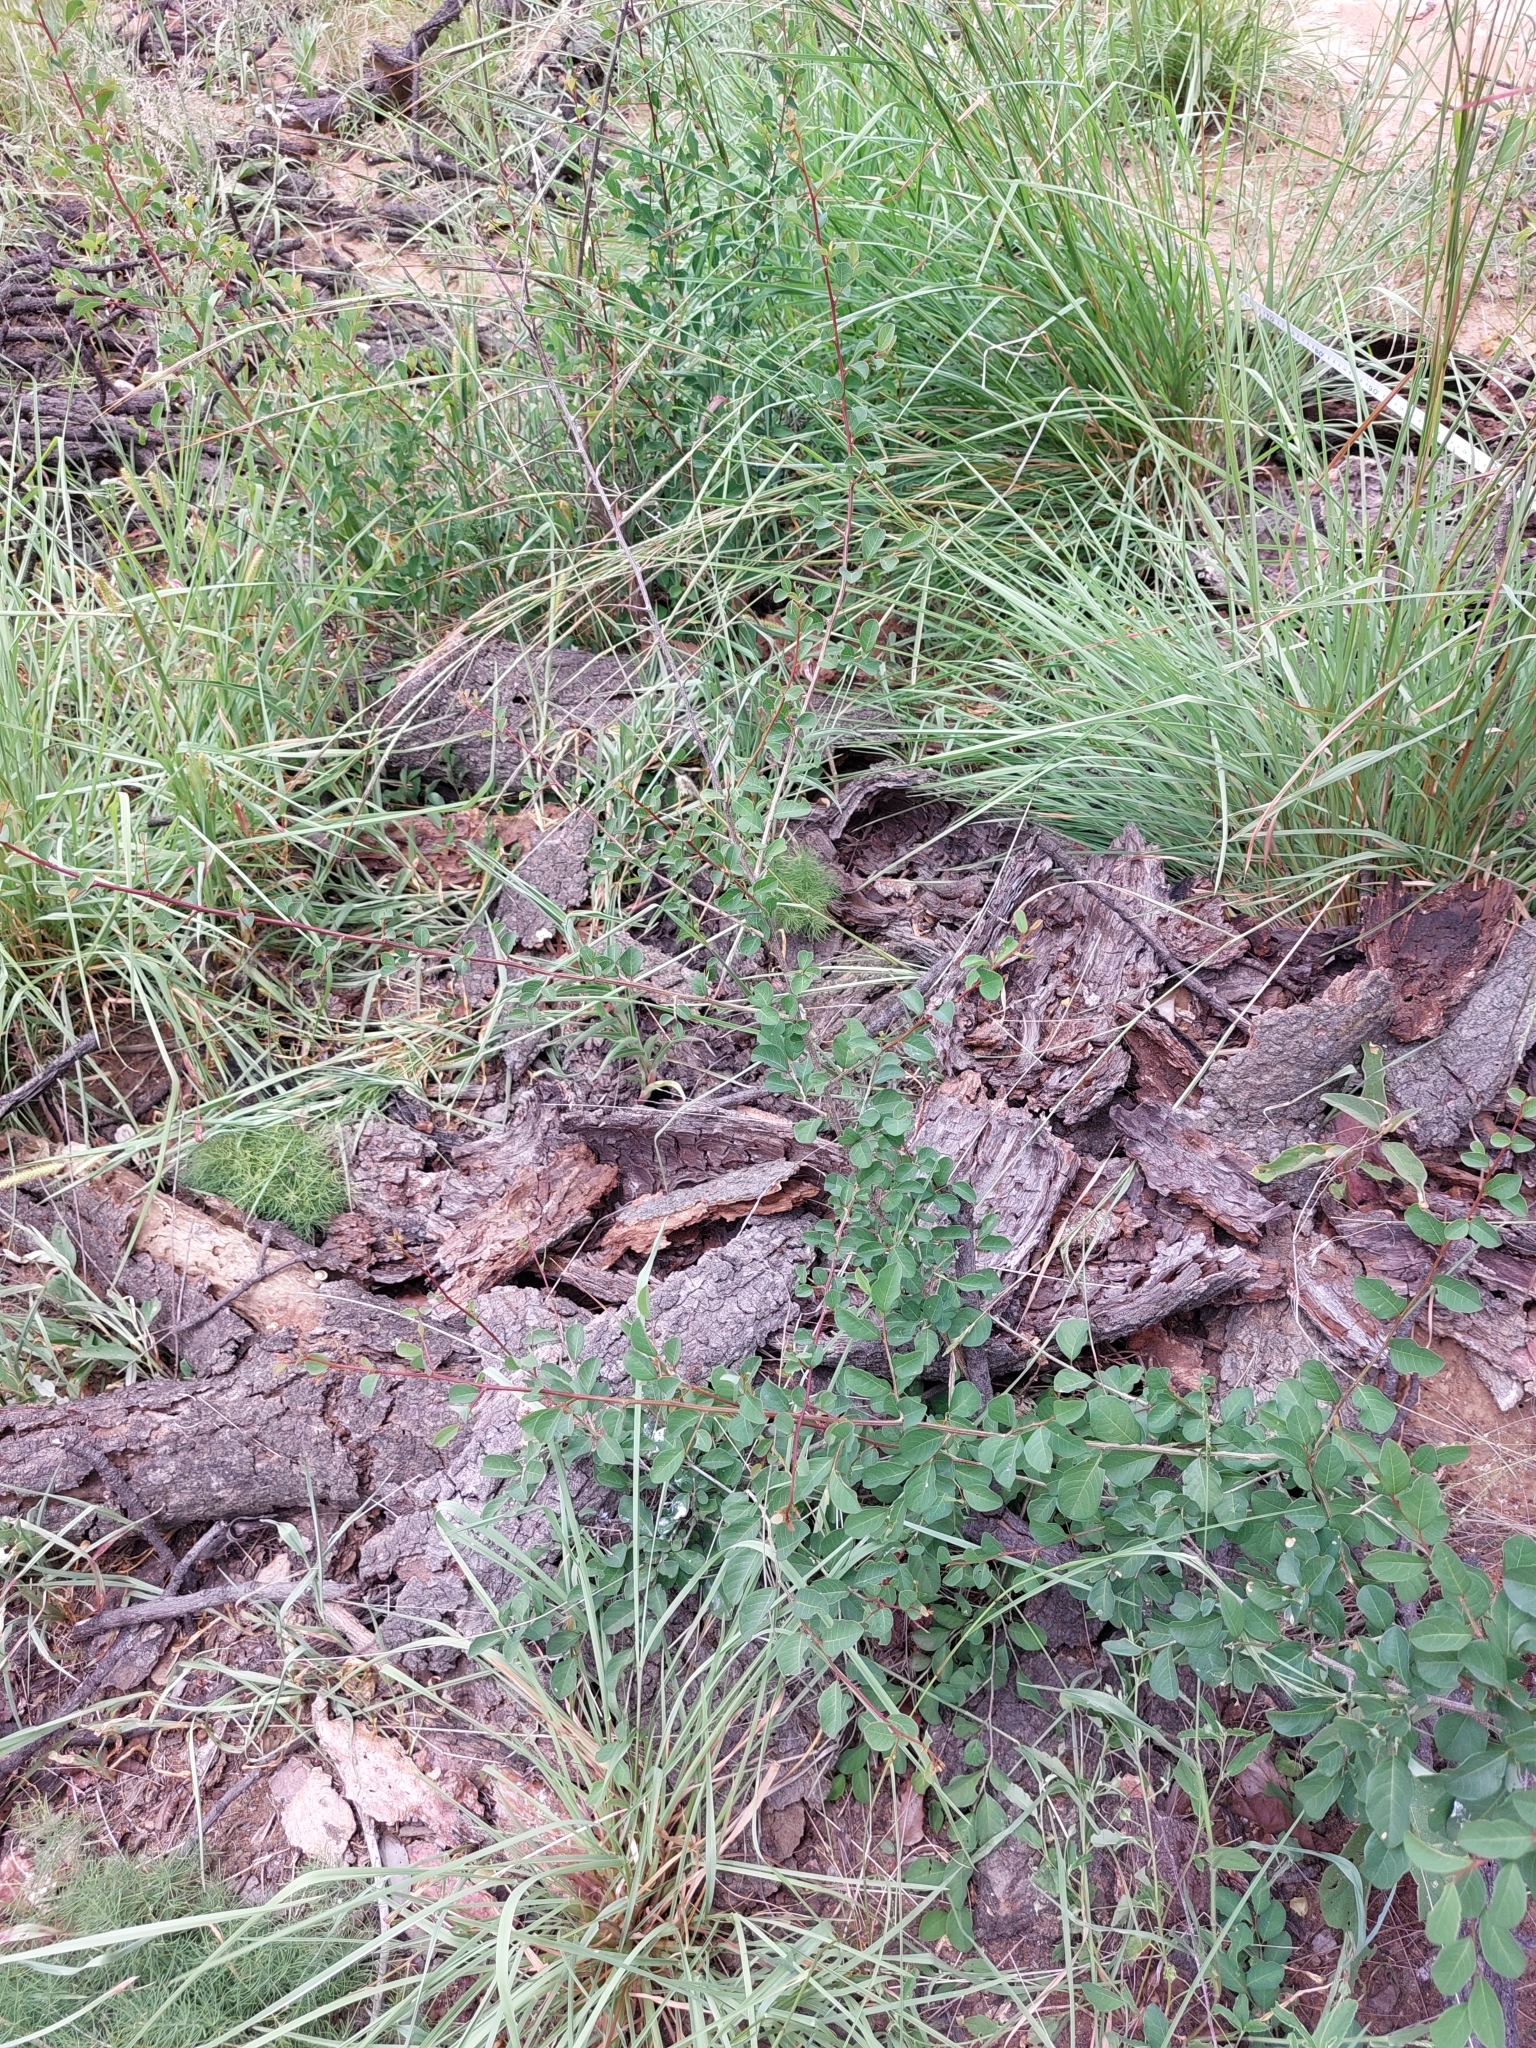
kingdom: Plantae
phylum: Tracheophyta
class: Magnoliopsida
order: Malpighiales
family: Phyllanthaceae
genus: Flueggea
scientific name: Flueggea virosa
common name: Common bushweed
